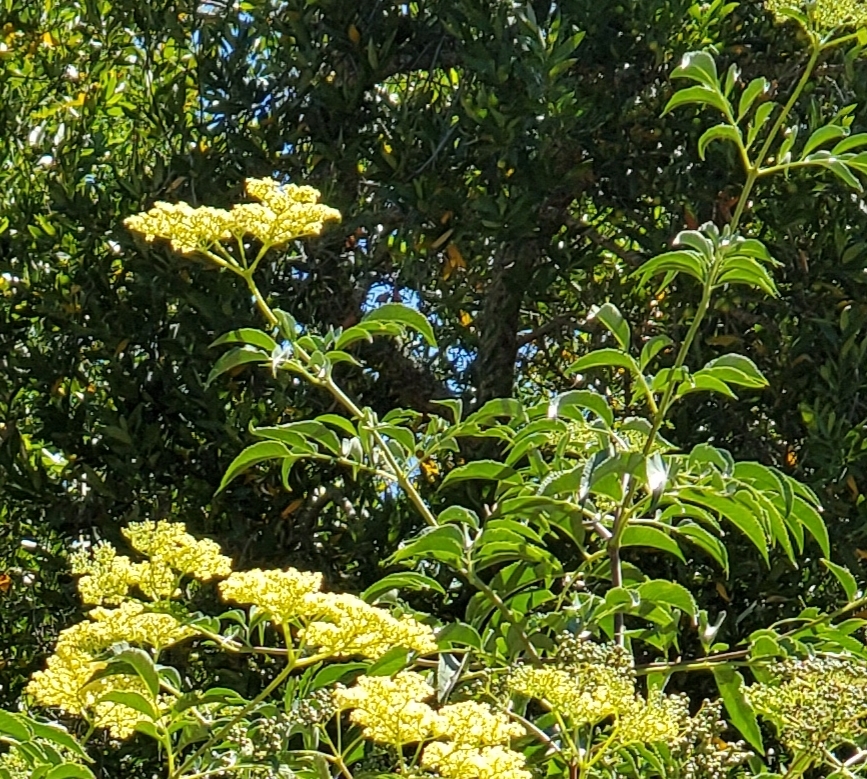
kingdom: Plantae
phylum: Tracheophyta
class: Magnoliopsida
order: Dipsacales
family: Viburnaceae
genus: Sambucus
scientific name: Sambucus cerulea
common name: Blue elder
